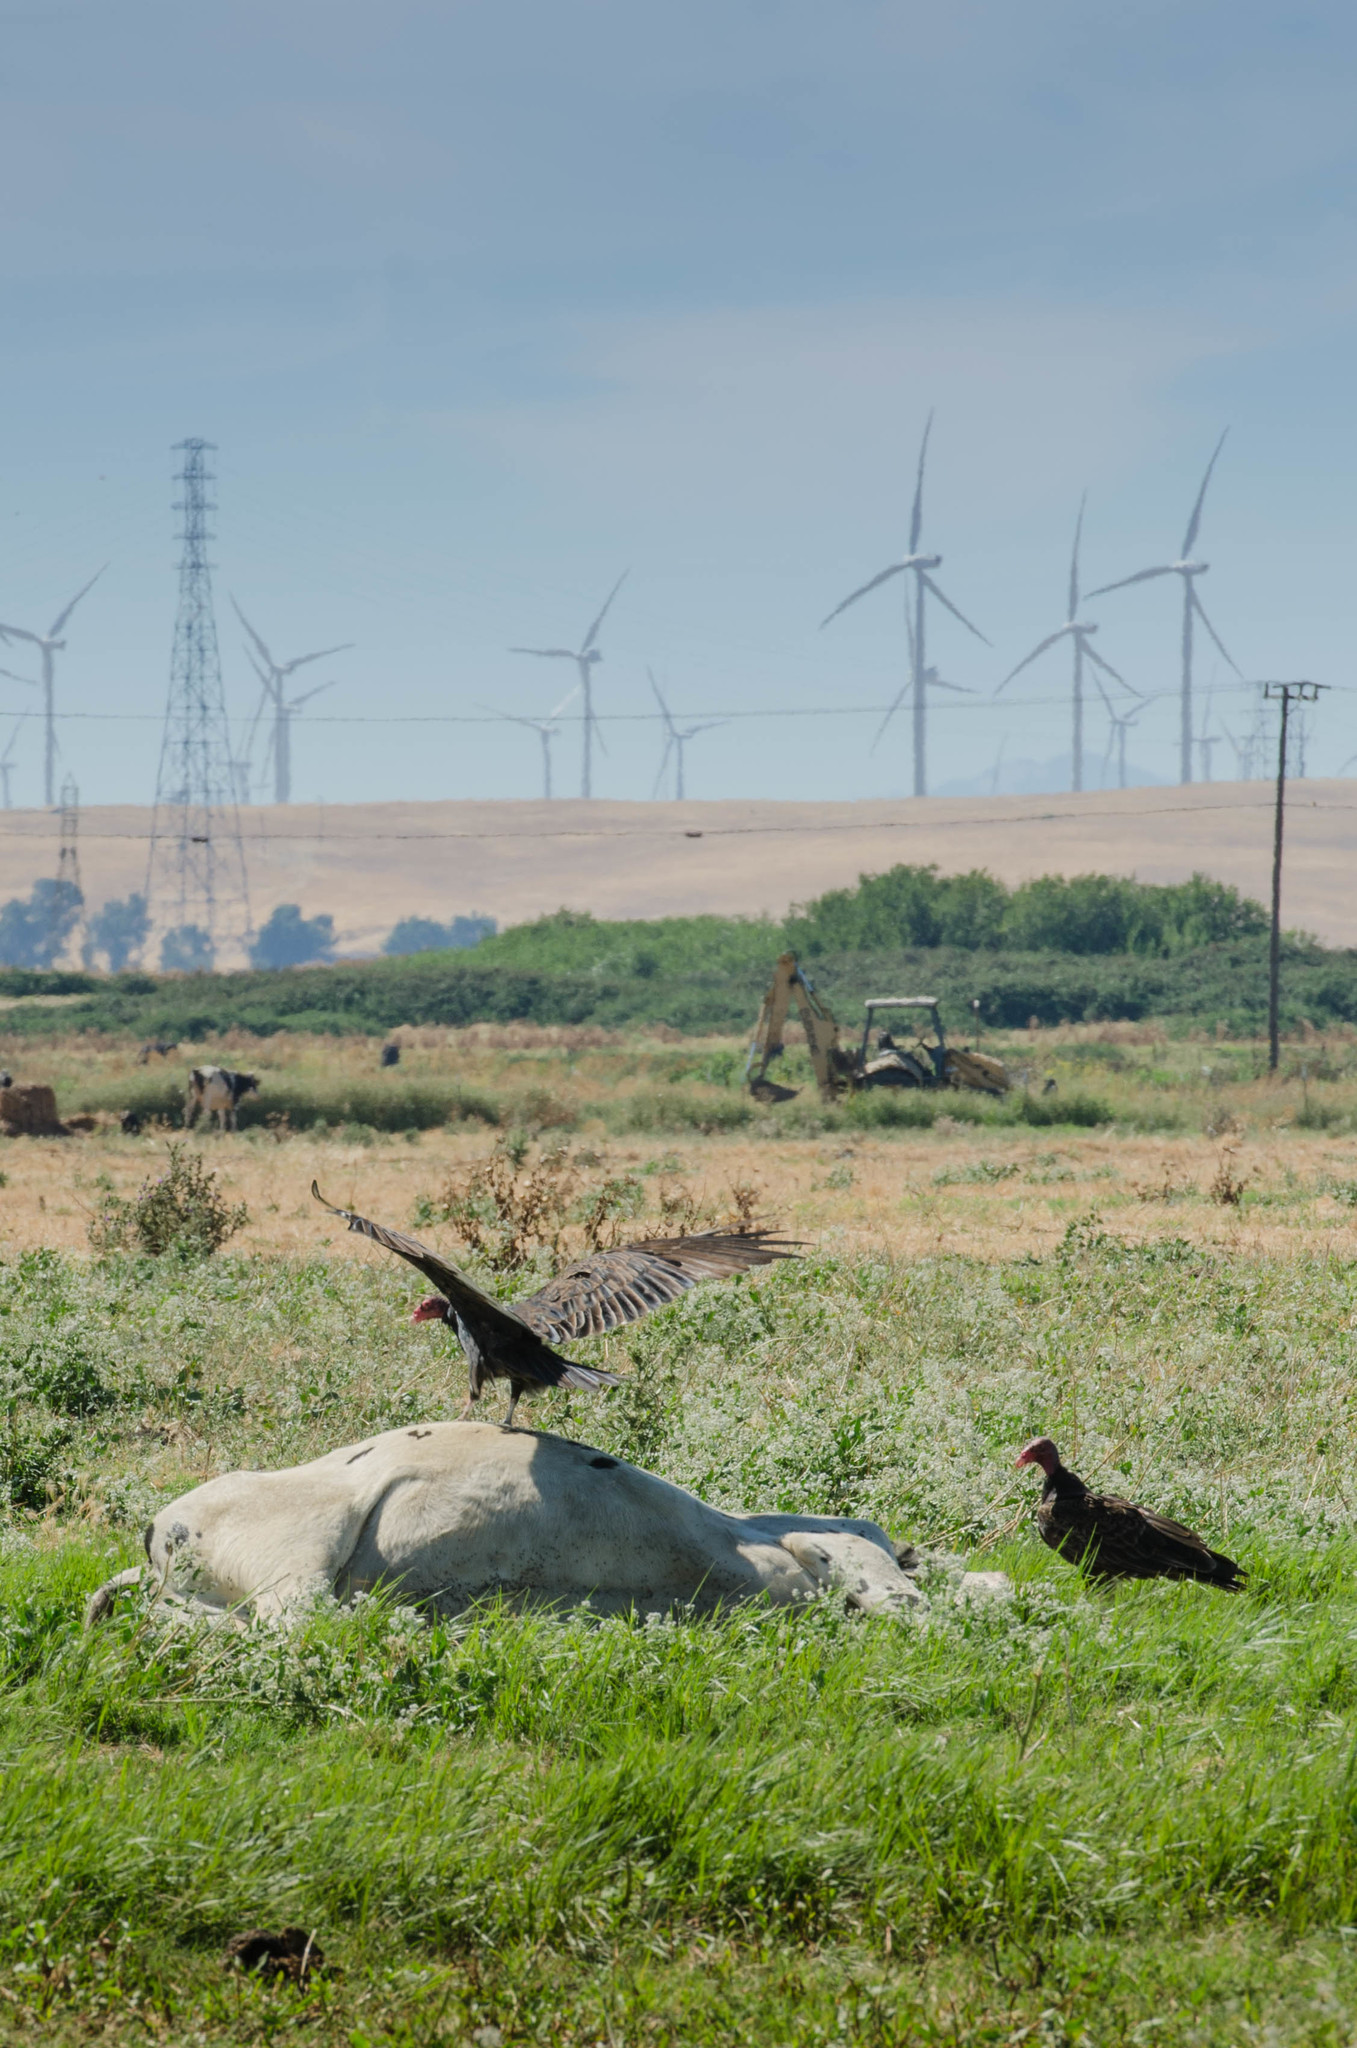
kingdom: Animalia
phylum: Chordata
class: Aves
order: Accipitriformes
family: Cathartidae
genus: Cathartes
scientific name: Cathartes aura
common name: Turkey vulture
